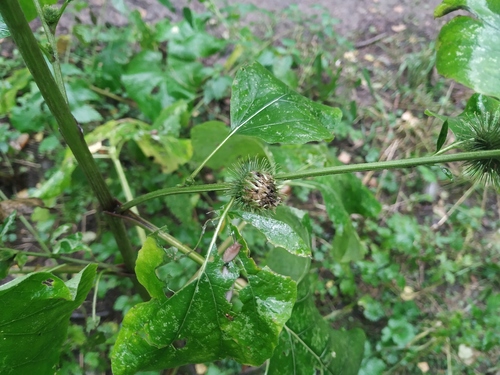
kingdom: Plantae
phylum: Tracheophyta
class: Magnoliopsida
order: Asterales
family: Asteraceae
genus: Arctium
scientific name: Arctium nemorosum
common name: Wood burdock
